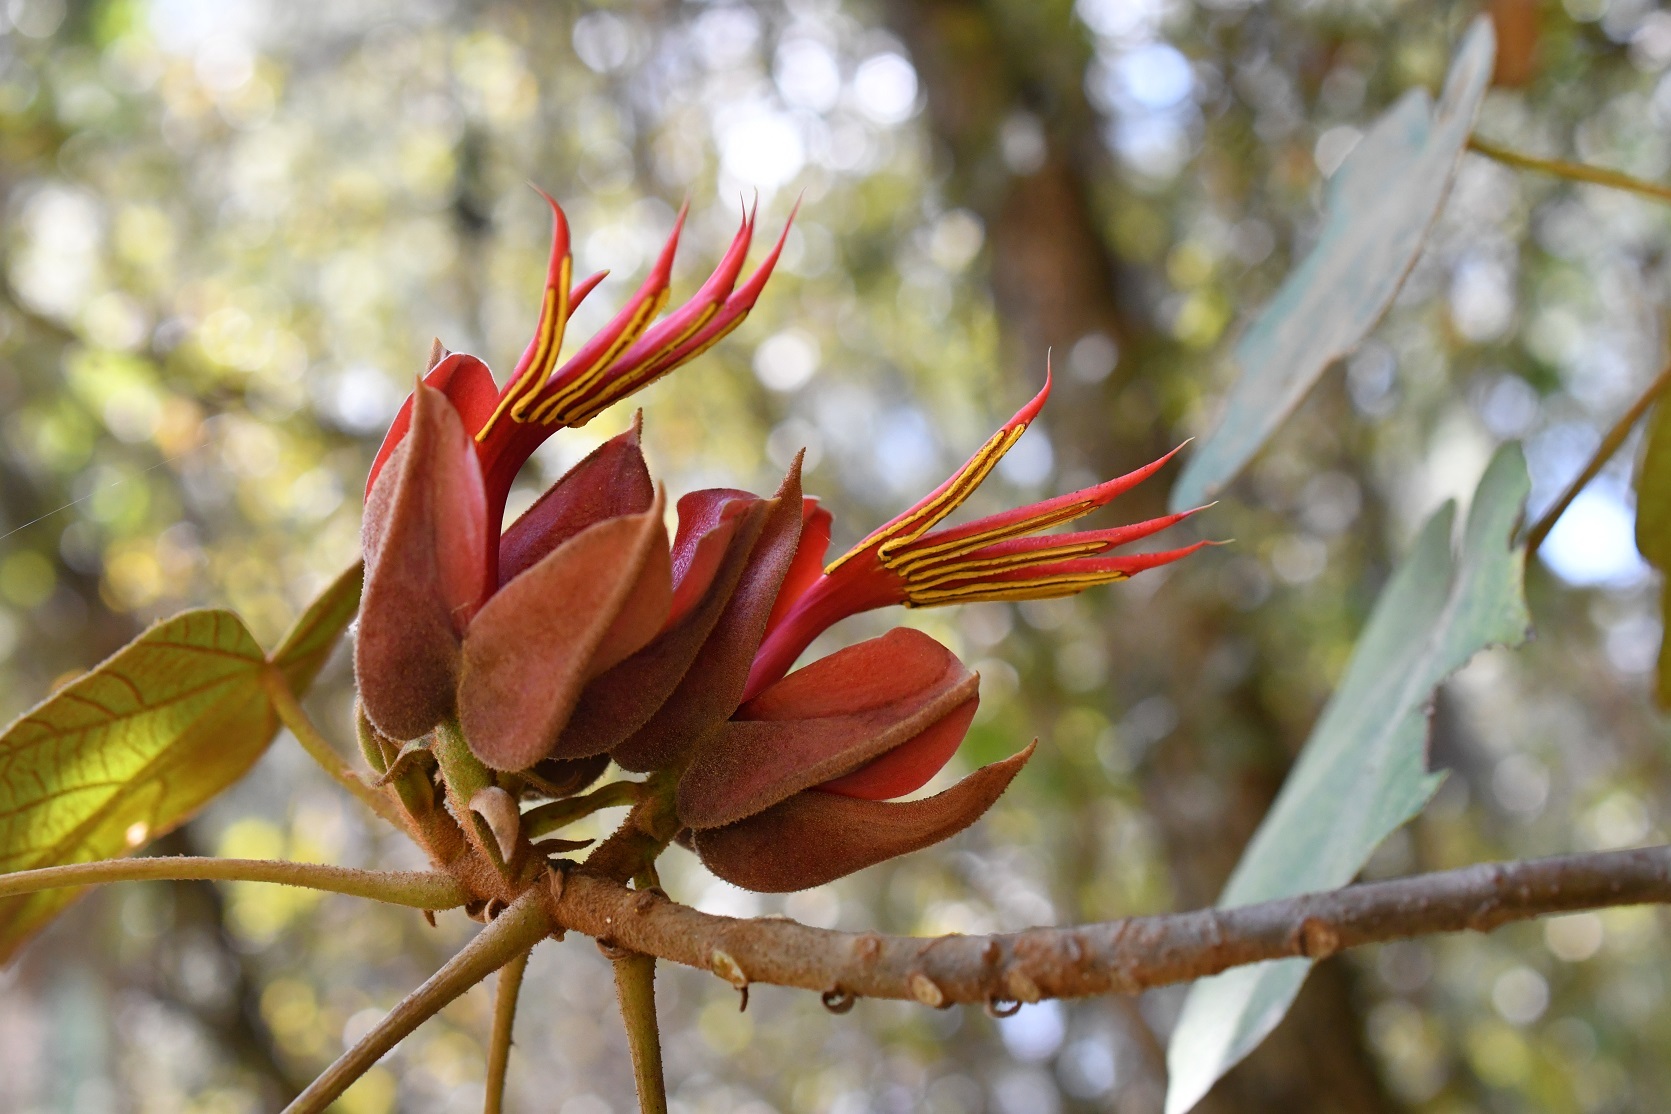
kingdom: Plantae
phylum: Tracheophyta
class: Magnoliopsida
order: Malvales
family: Malvaceae
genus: Chiranthodendron
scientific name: Chiranthodendron pentadactylon
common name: Mexican-hat-plant
